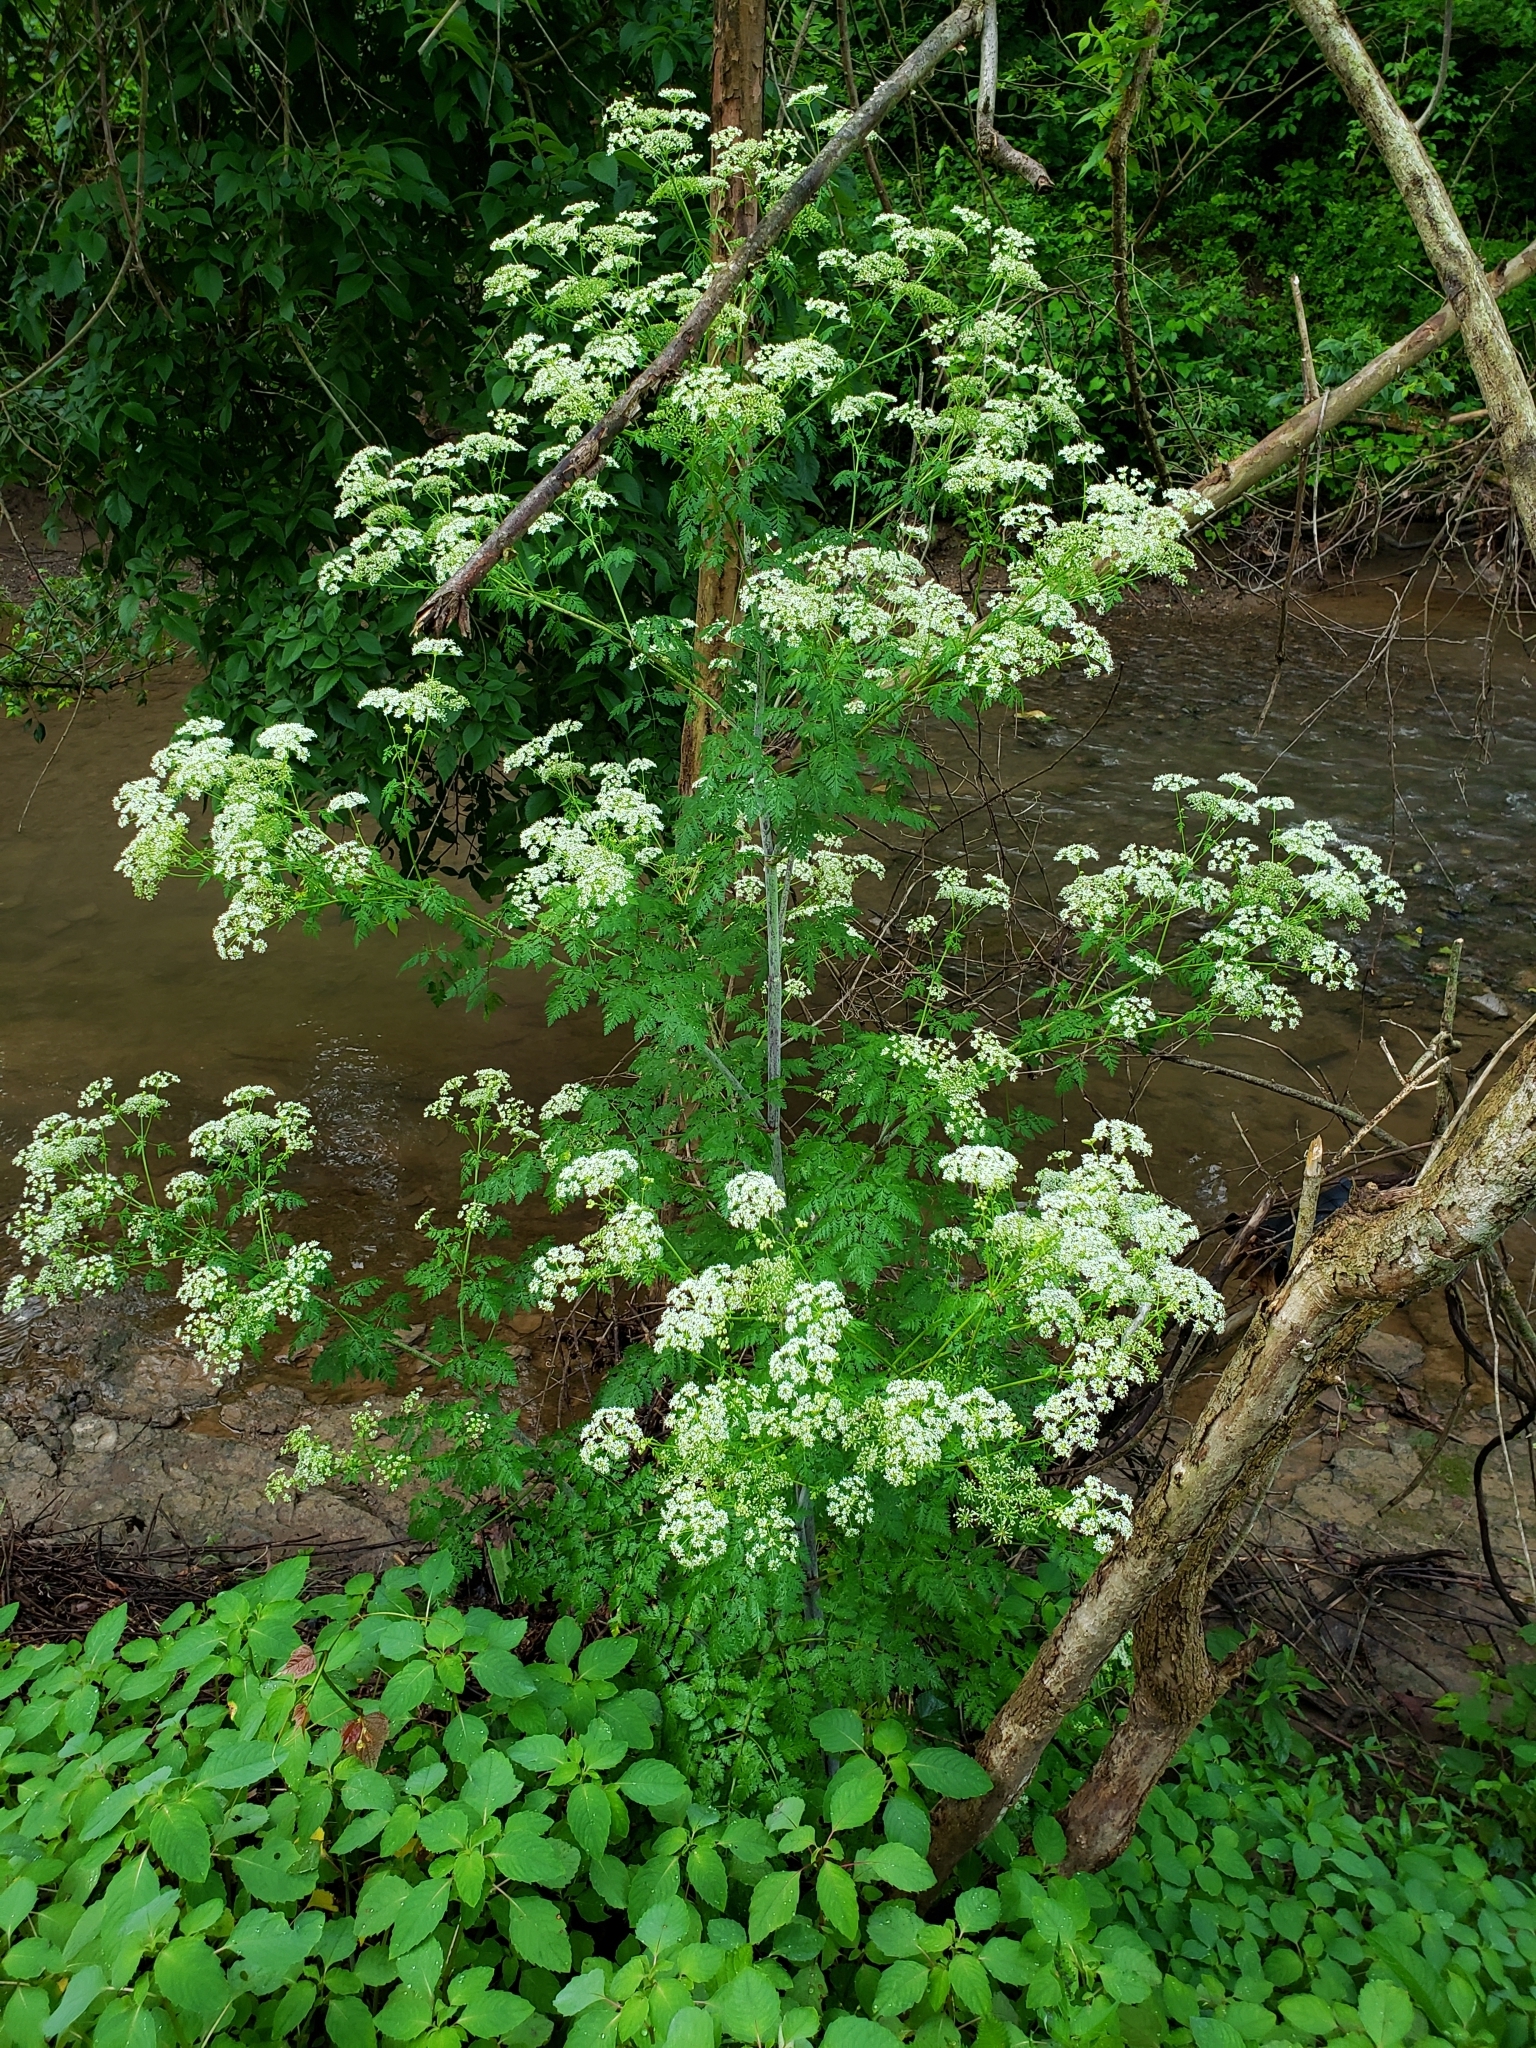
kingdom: Plantae
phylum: Tracheophyta
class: Magnoliopsida
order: Apiales
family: Apiaceae
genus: Conium
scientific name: Conium maculatum
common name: Hemlock
